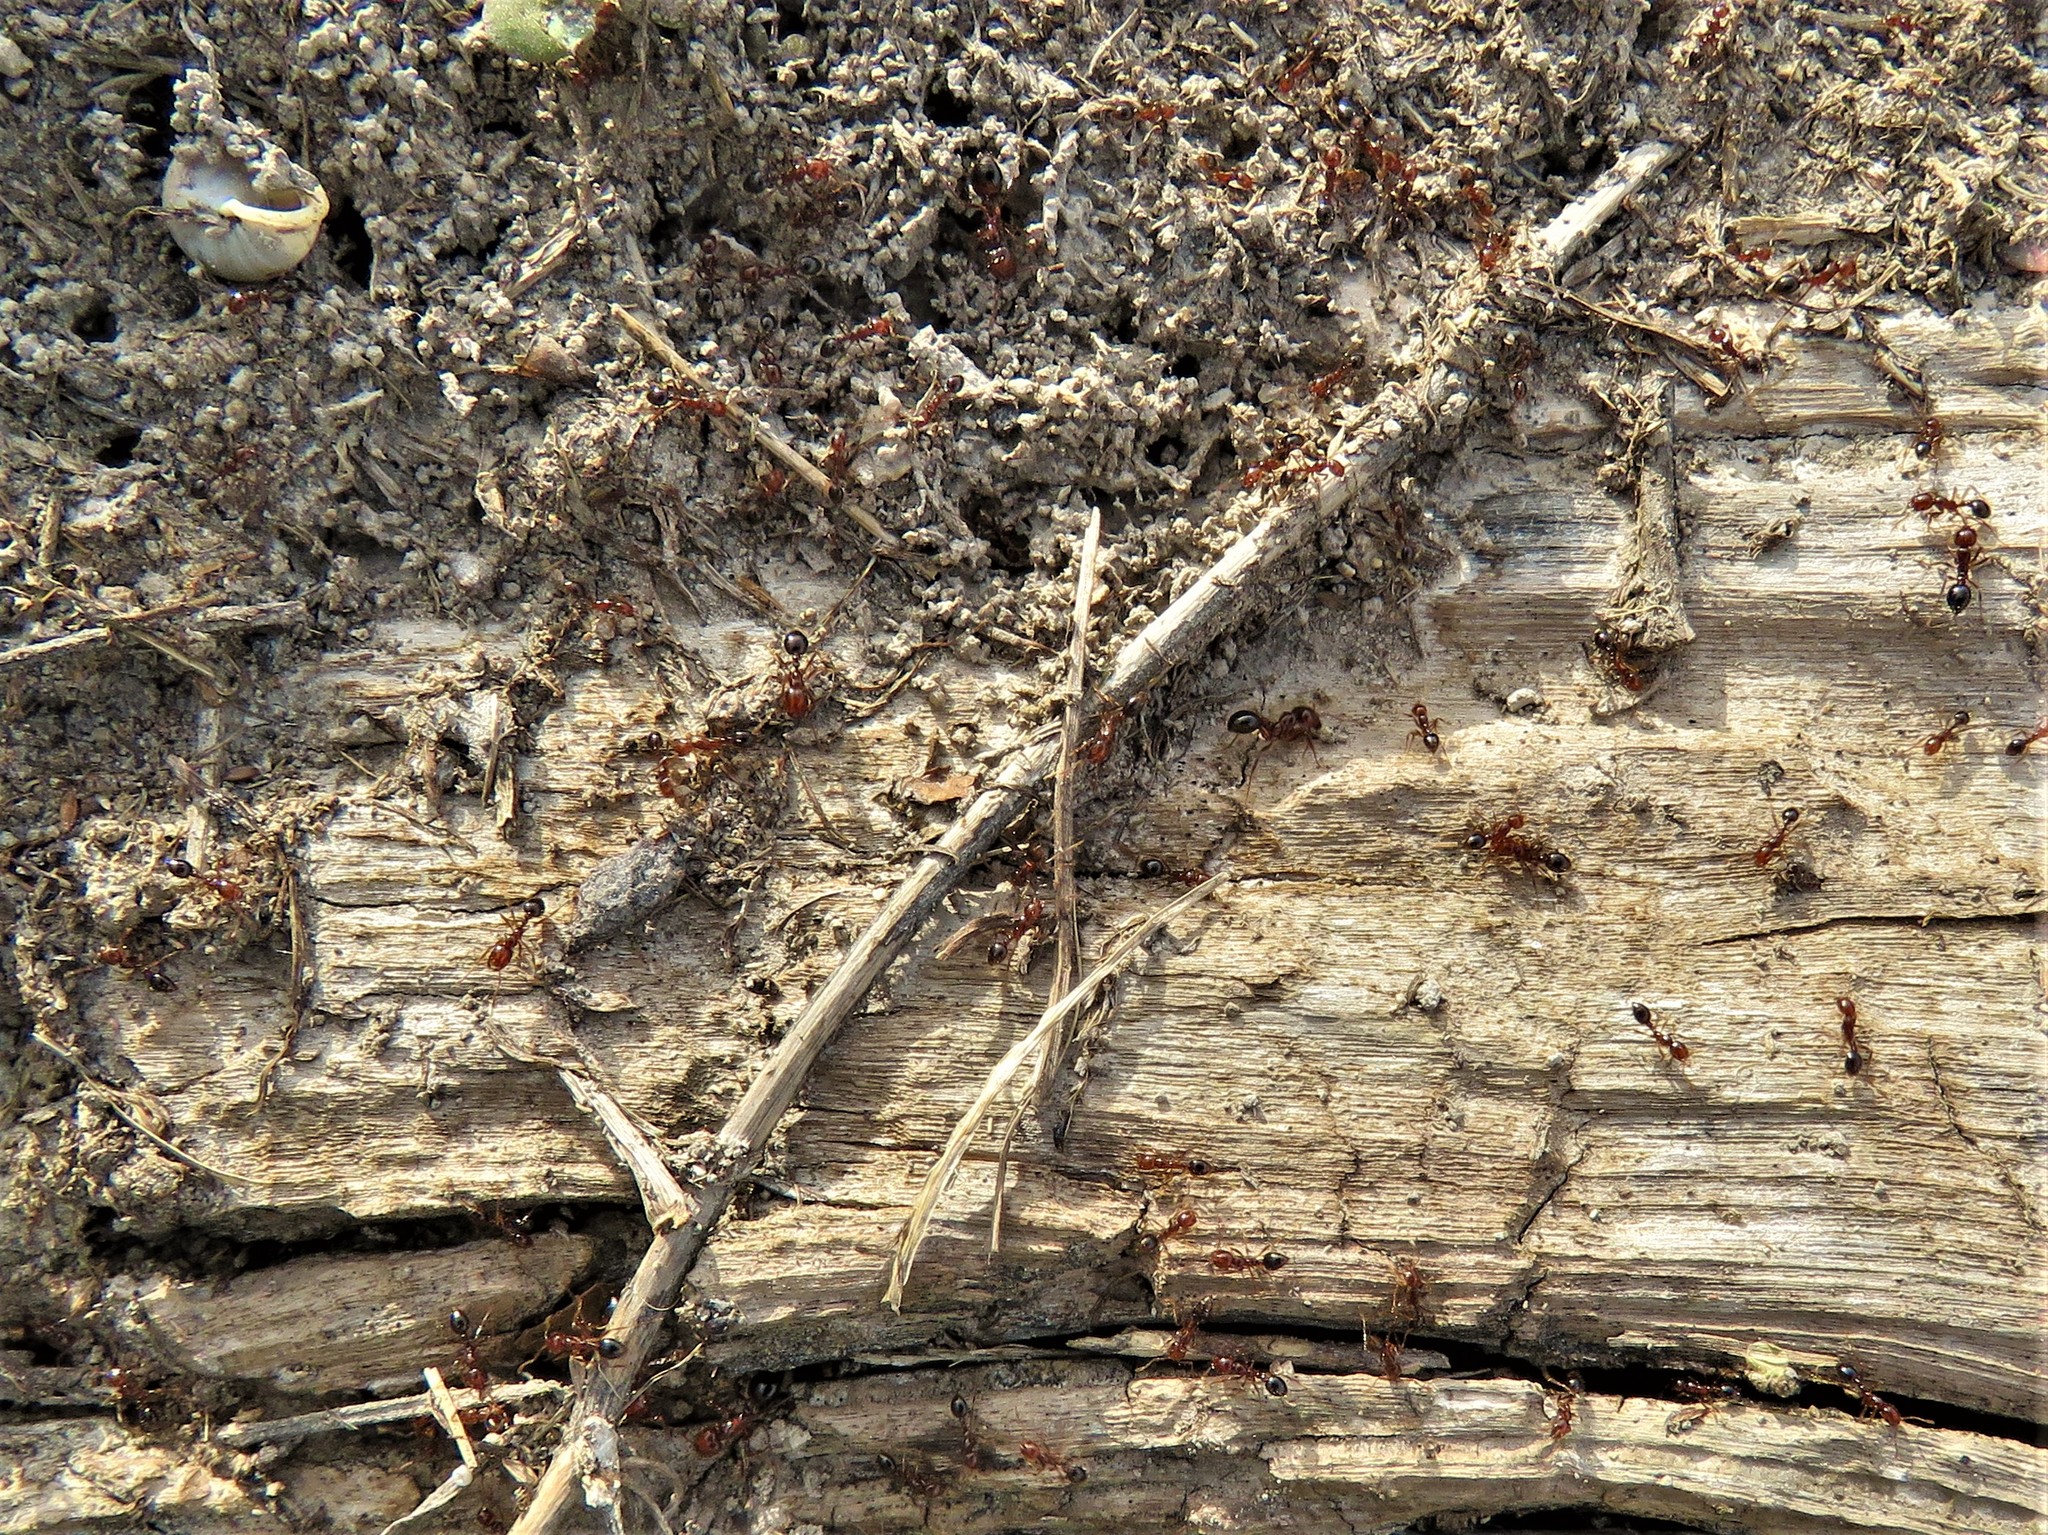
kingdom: Animalia
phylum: Arthropoda
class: Insecta
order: Hymenoptera
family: Formicidae
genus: Solenopsis
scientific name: Solenopsis invicta
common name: Red imported fire ant
